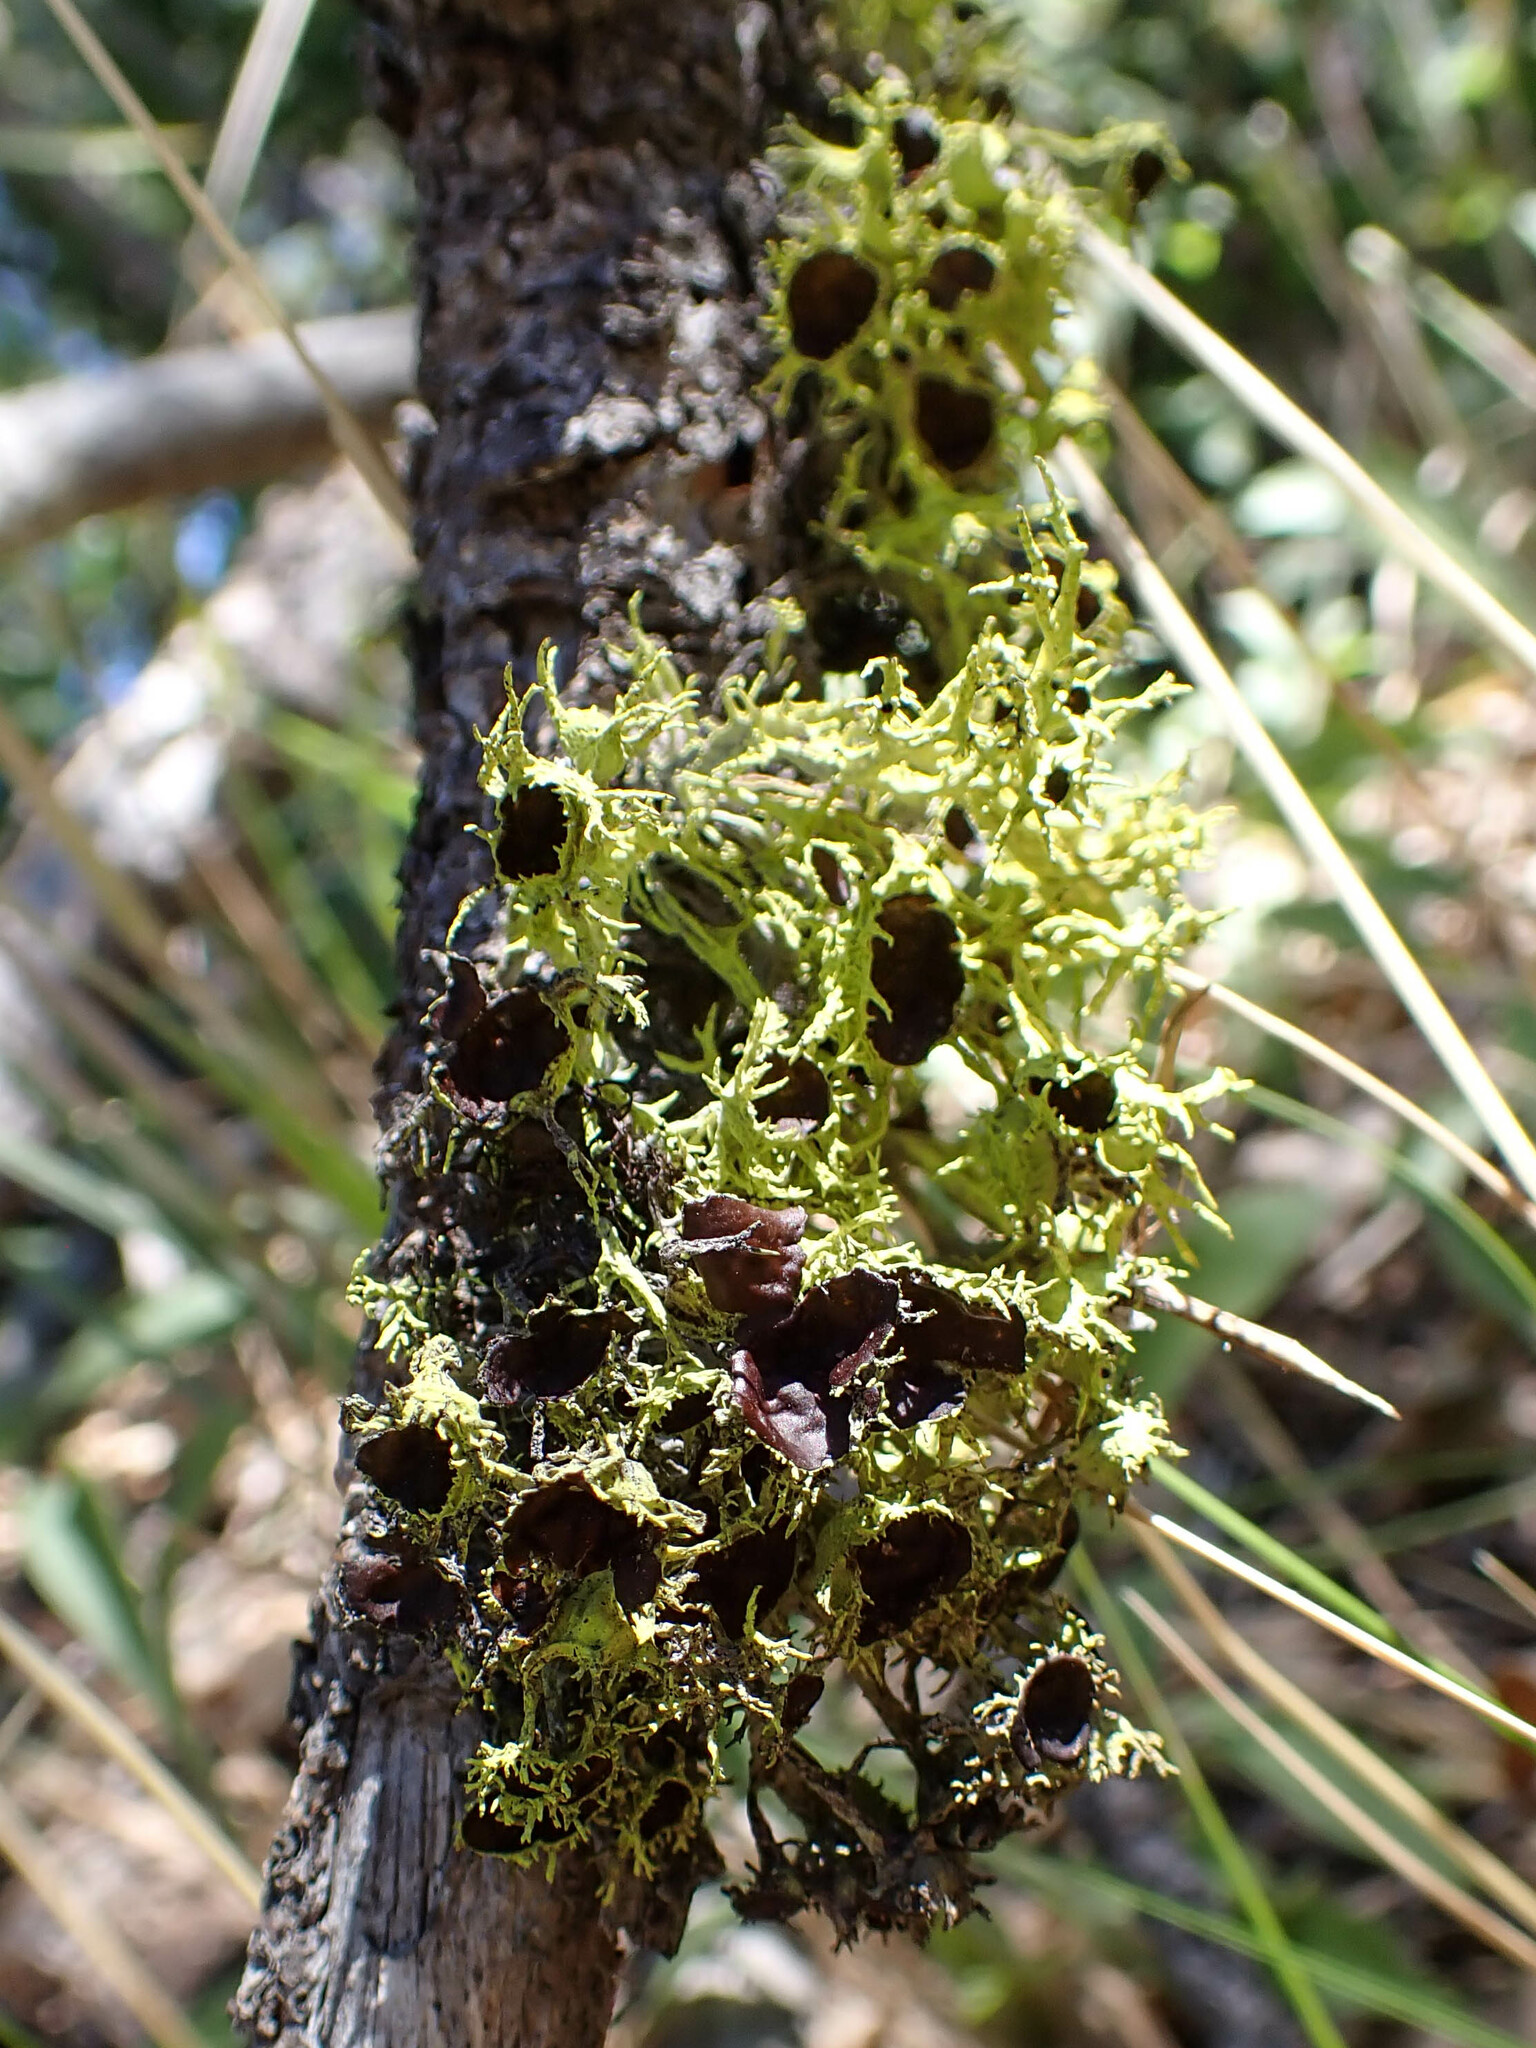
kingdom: Fungi
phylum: Ascomycota
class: Lecanoromycetes
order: Lecanorales
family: Parmeliaceae
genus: Letharia
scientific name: Letharia columbiana
